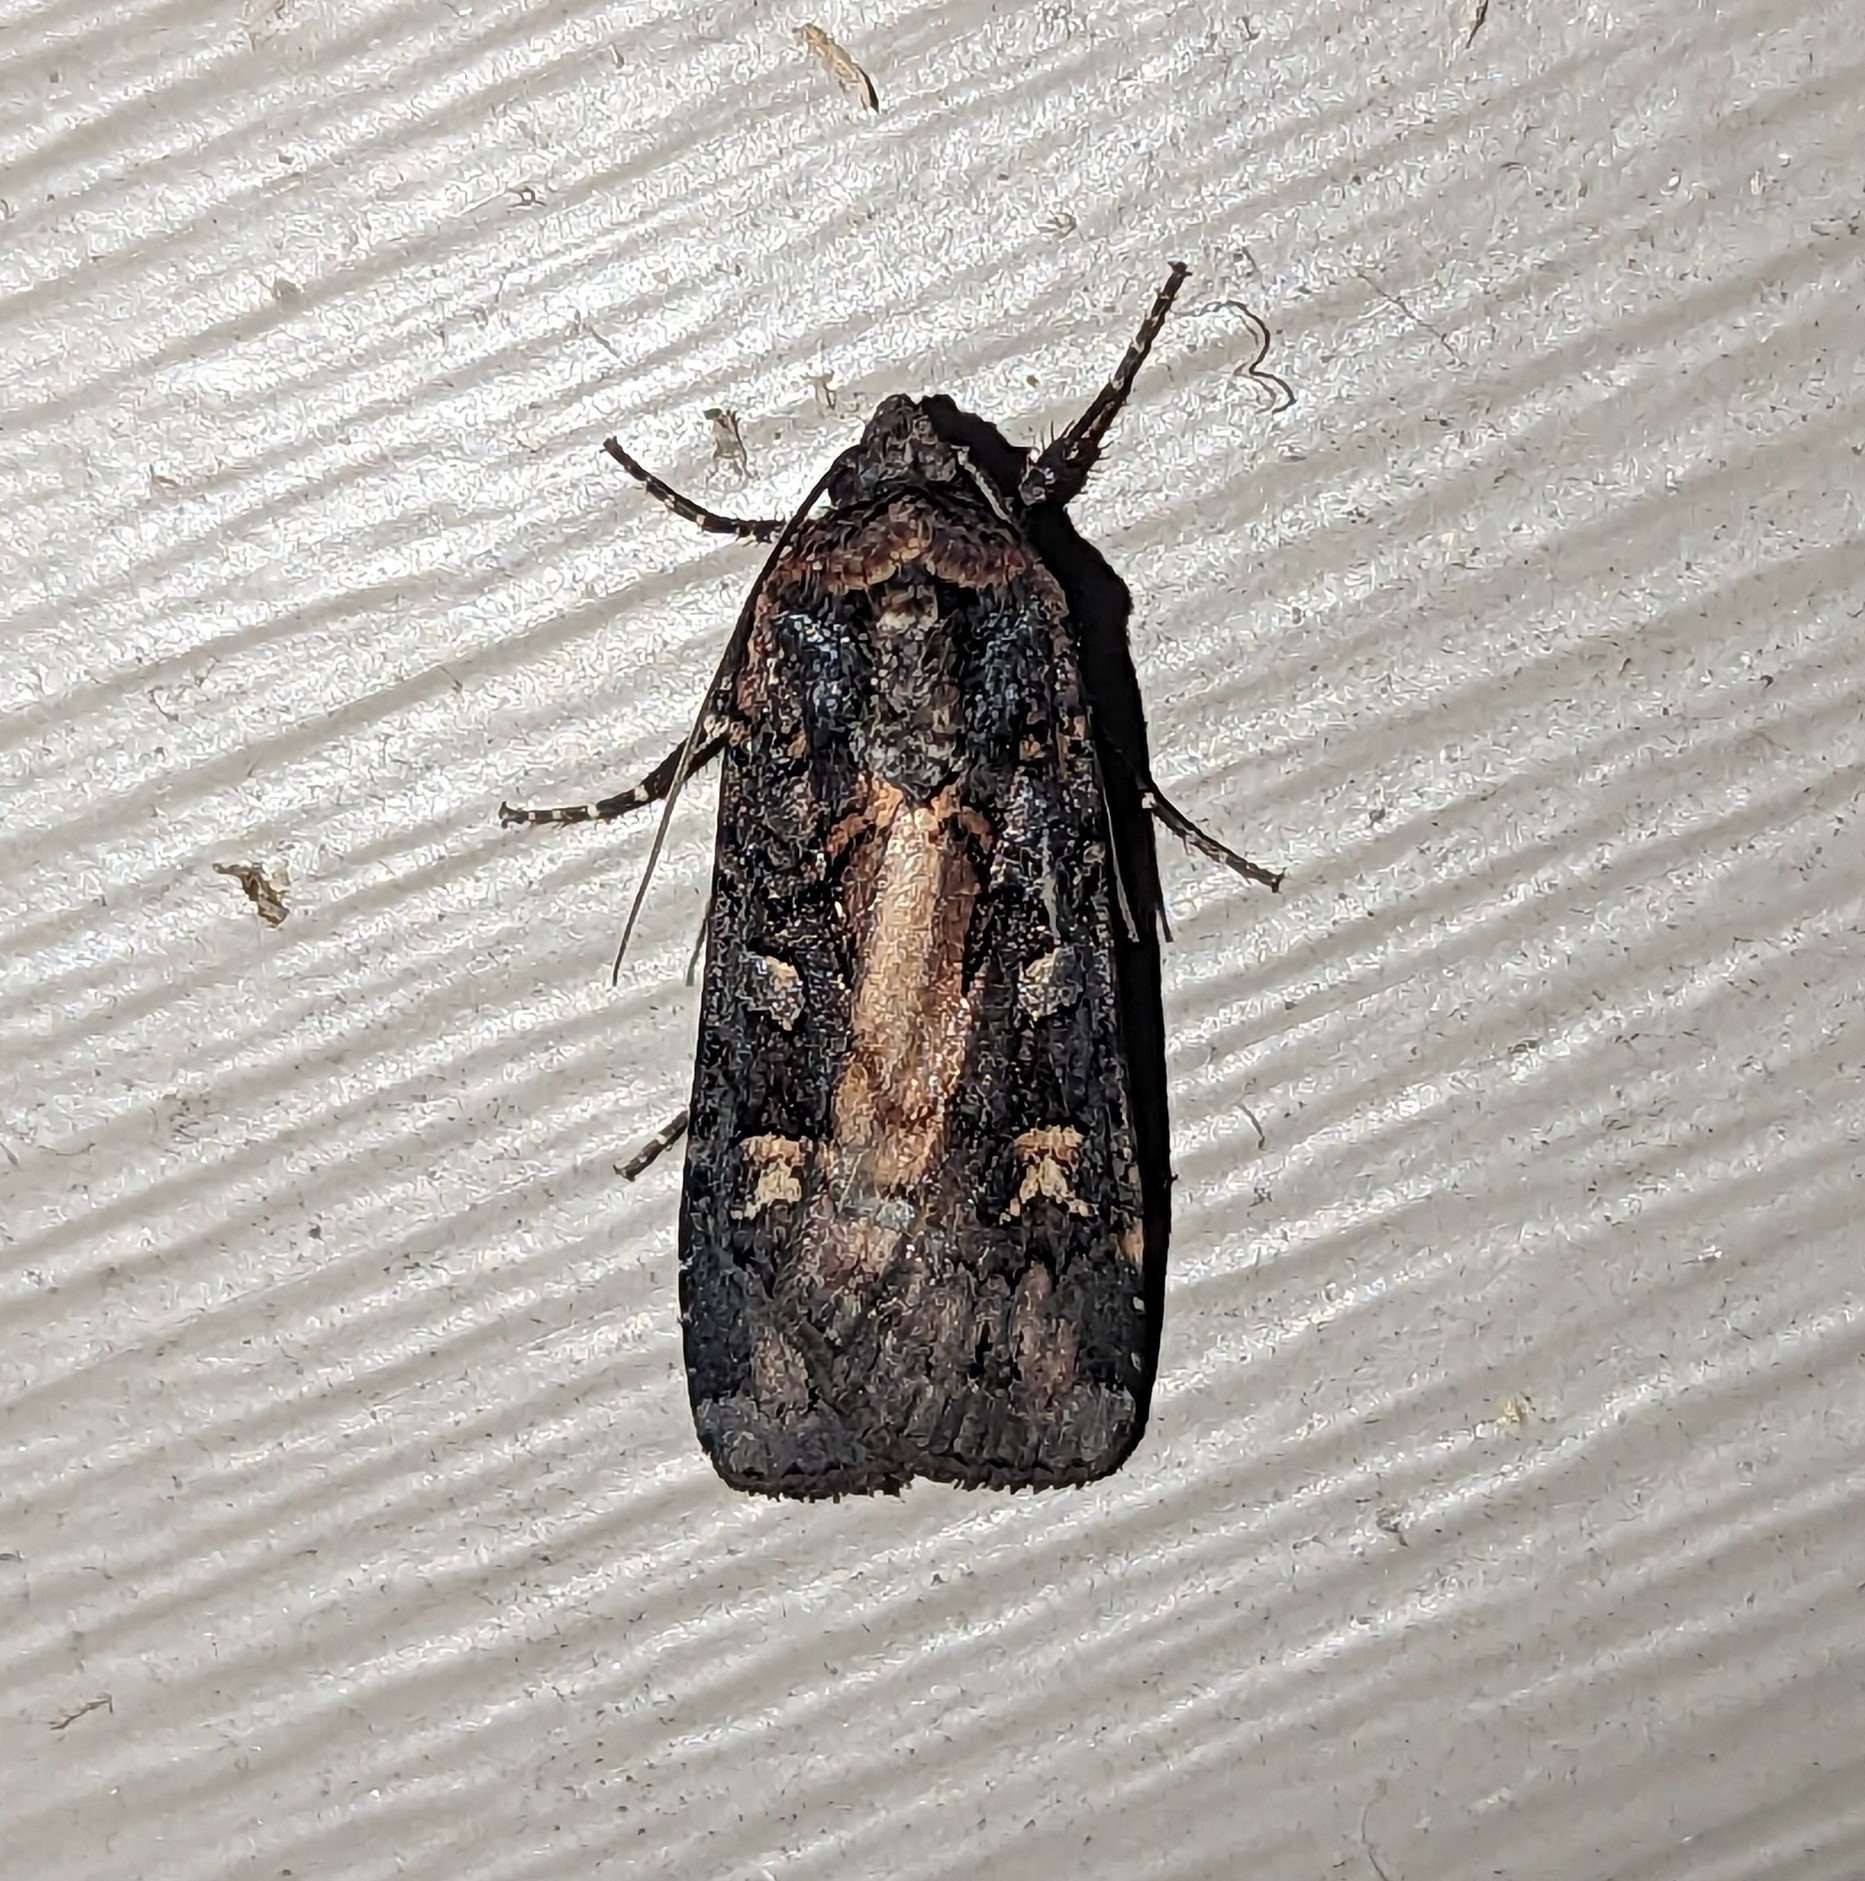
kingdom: Animalia
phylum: Arthropoda
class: Insecta
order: Lepidoptera
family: Noctuidae
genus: Actebia
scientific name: Actebia fennica
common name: Eversmann's rustic
